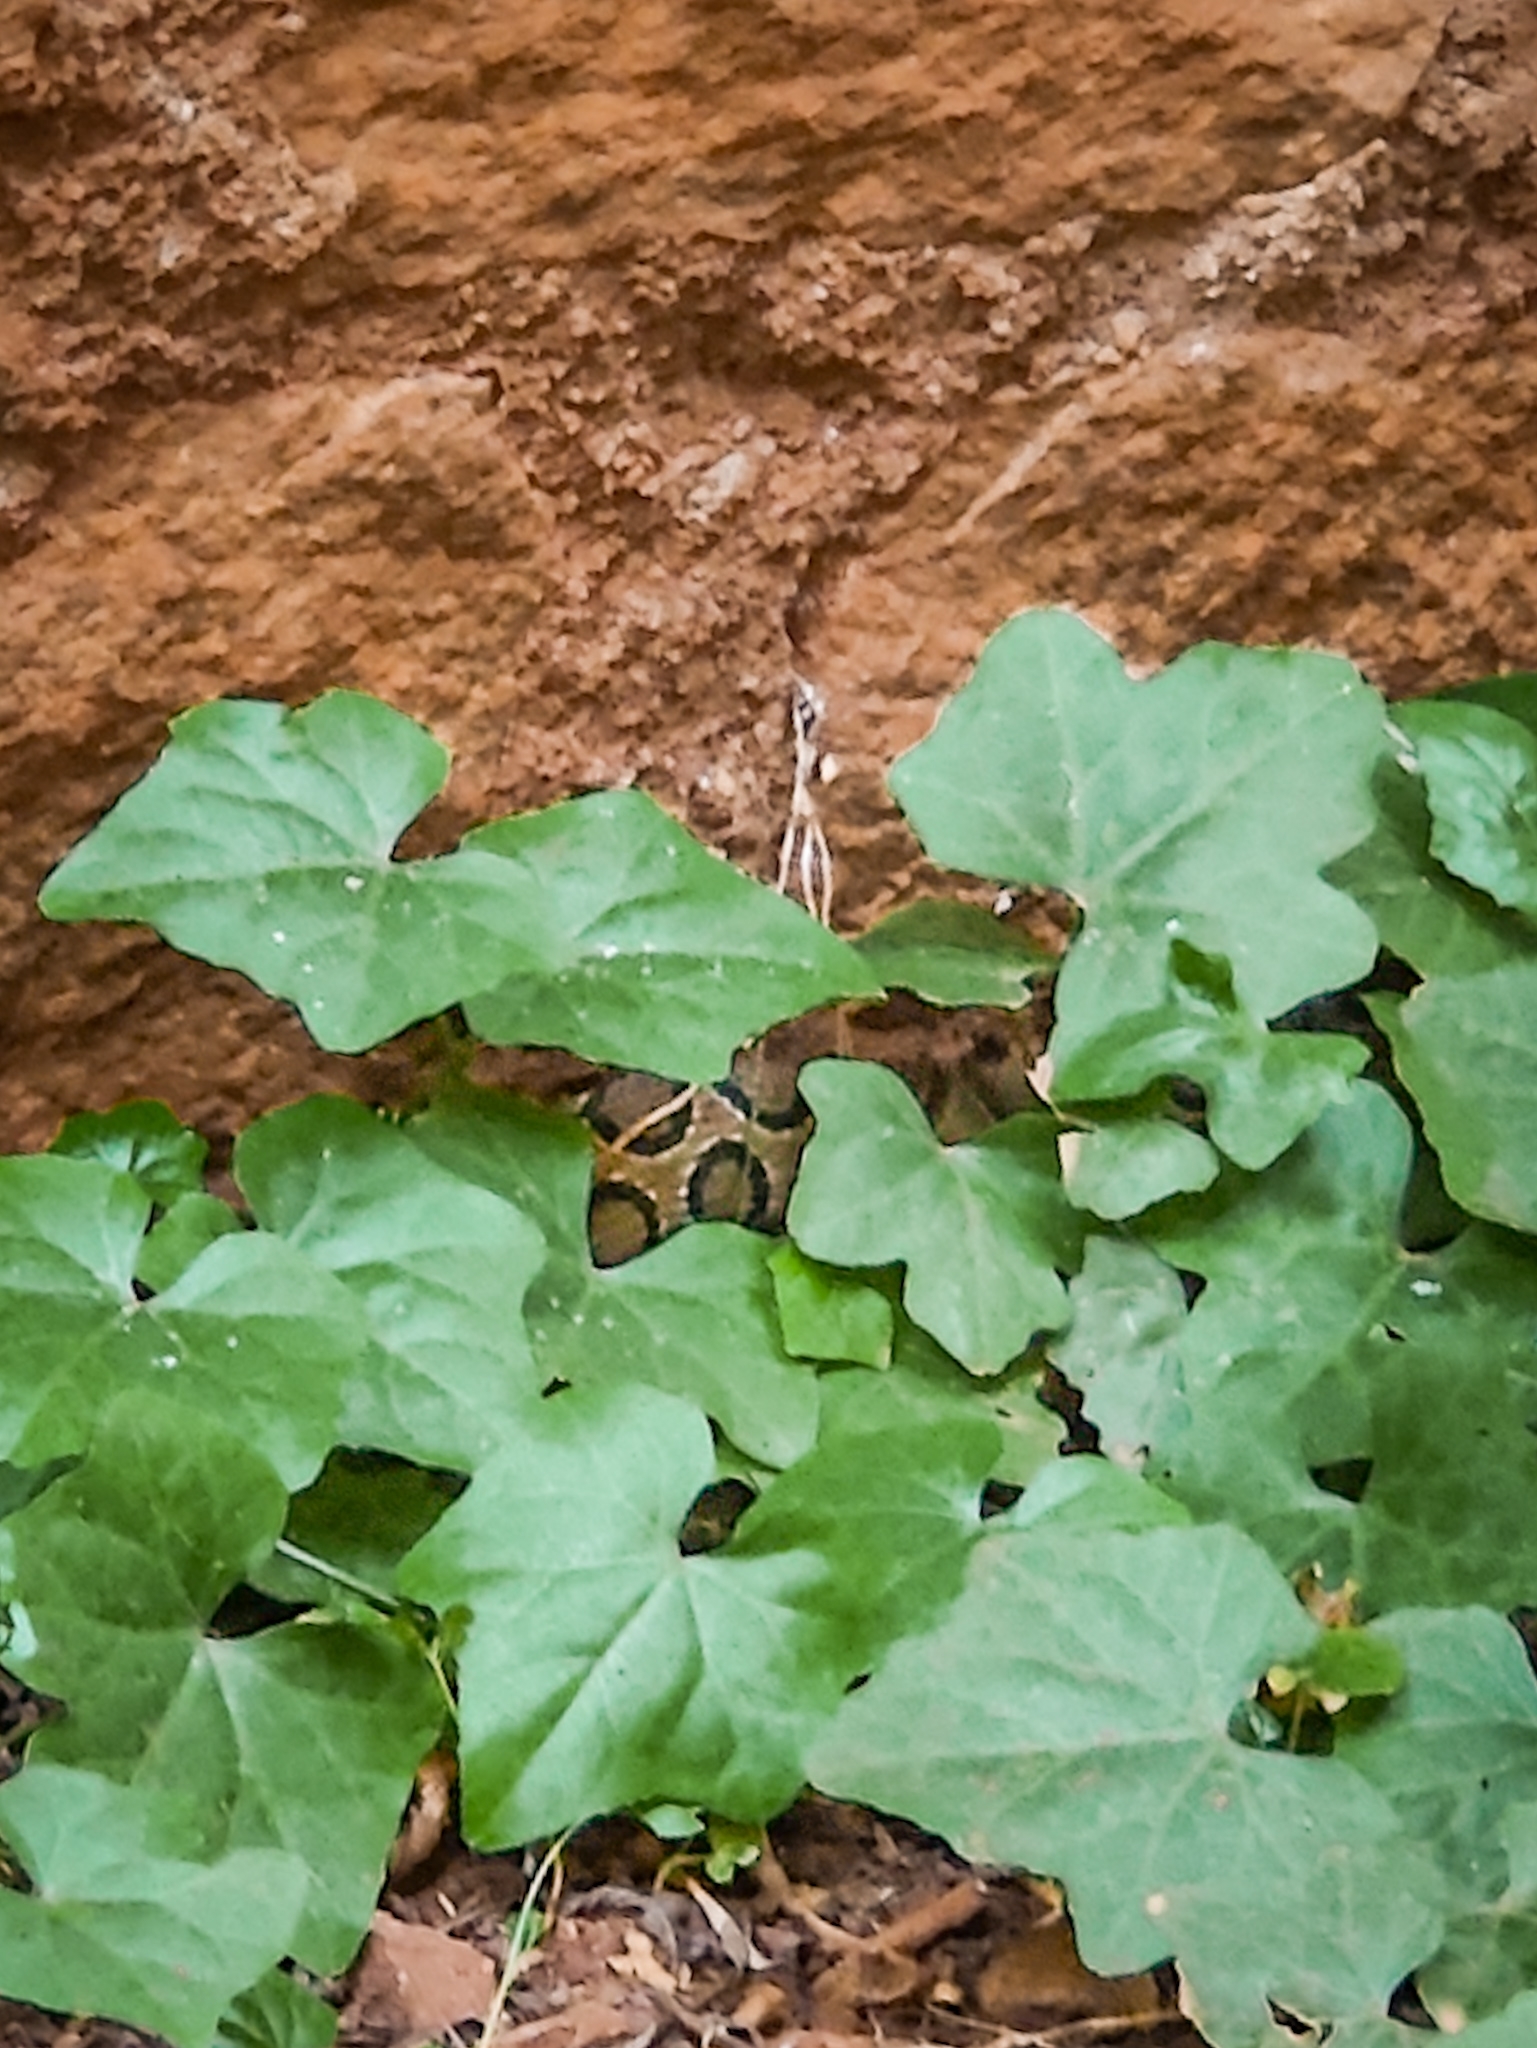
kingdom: Animalia
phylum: Chordata
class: Squamata
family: Viperidae
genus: Daboia
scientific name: Daboia russelii
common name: Western russel’s viper
